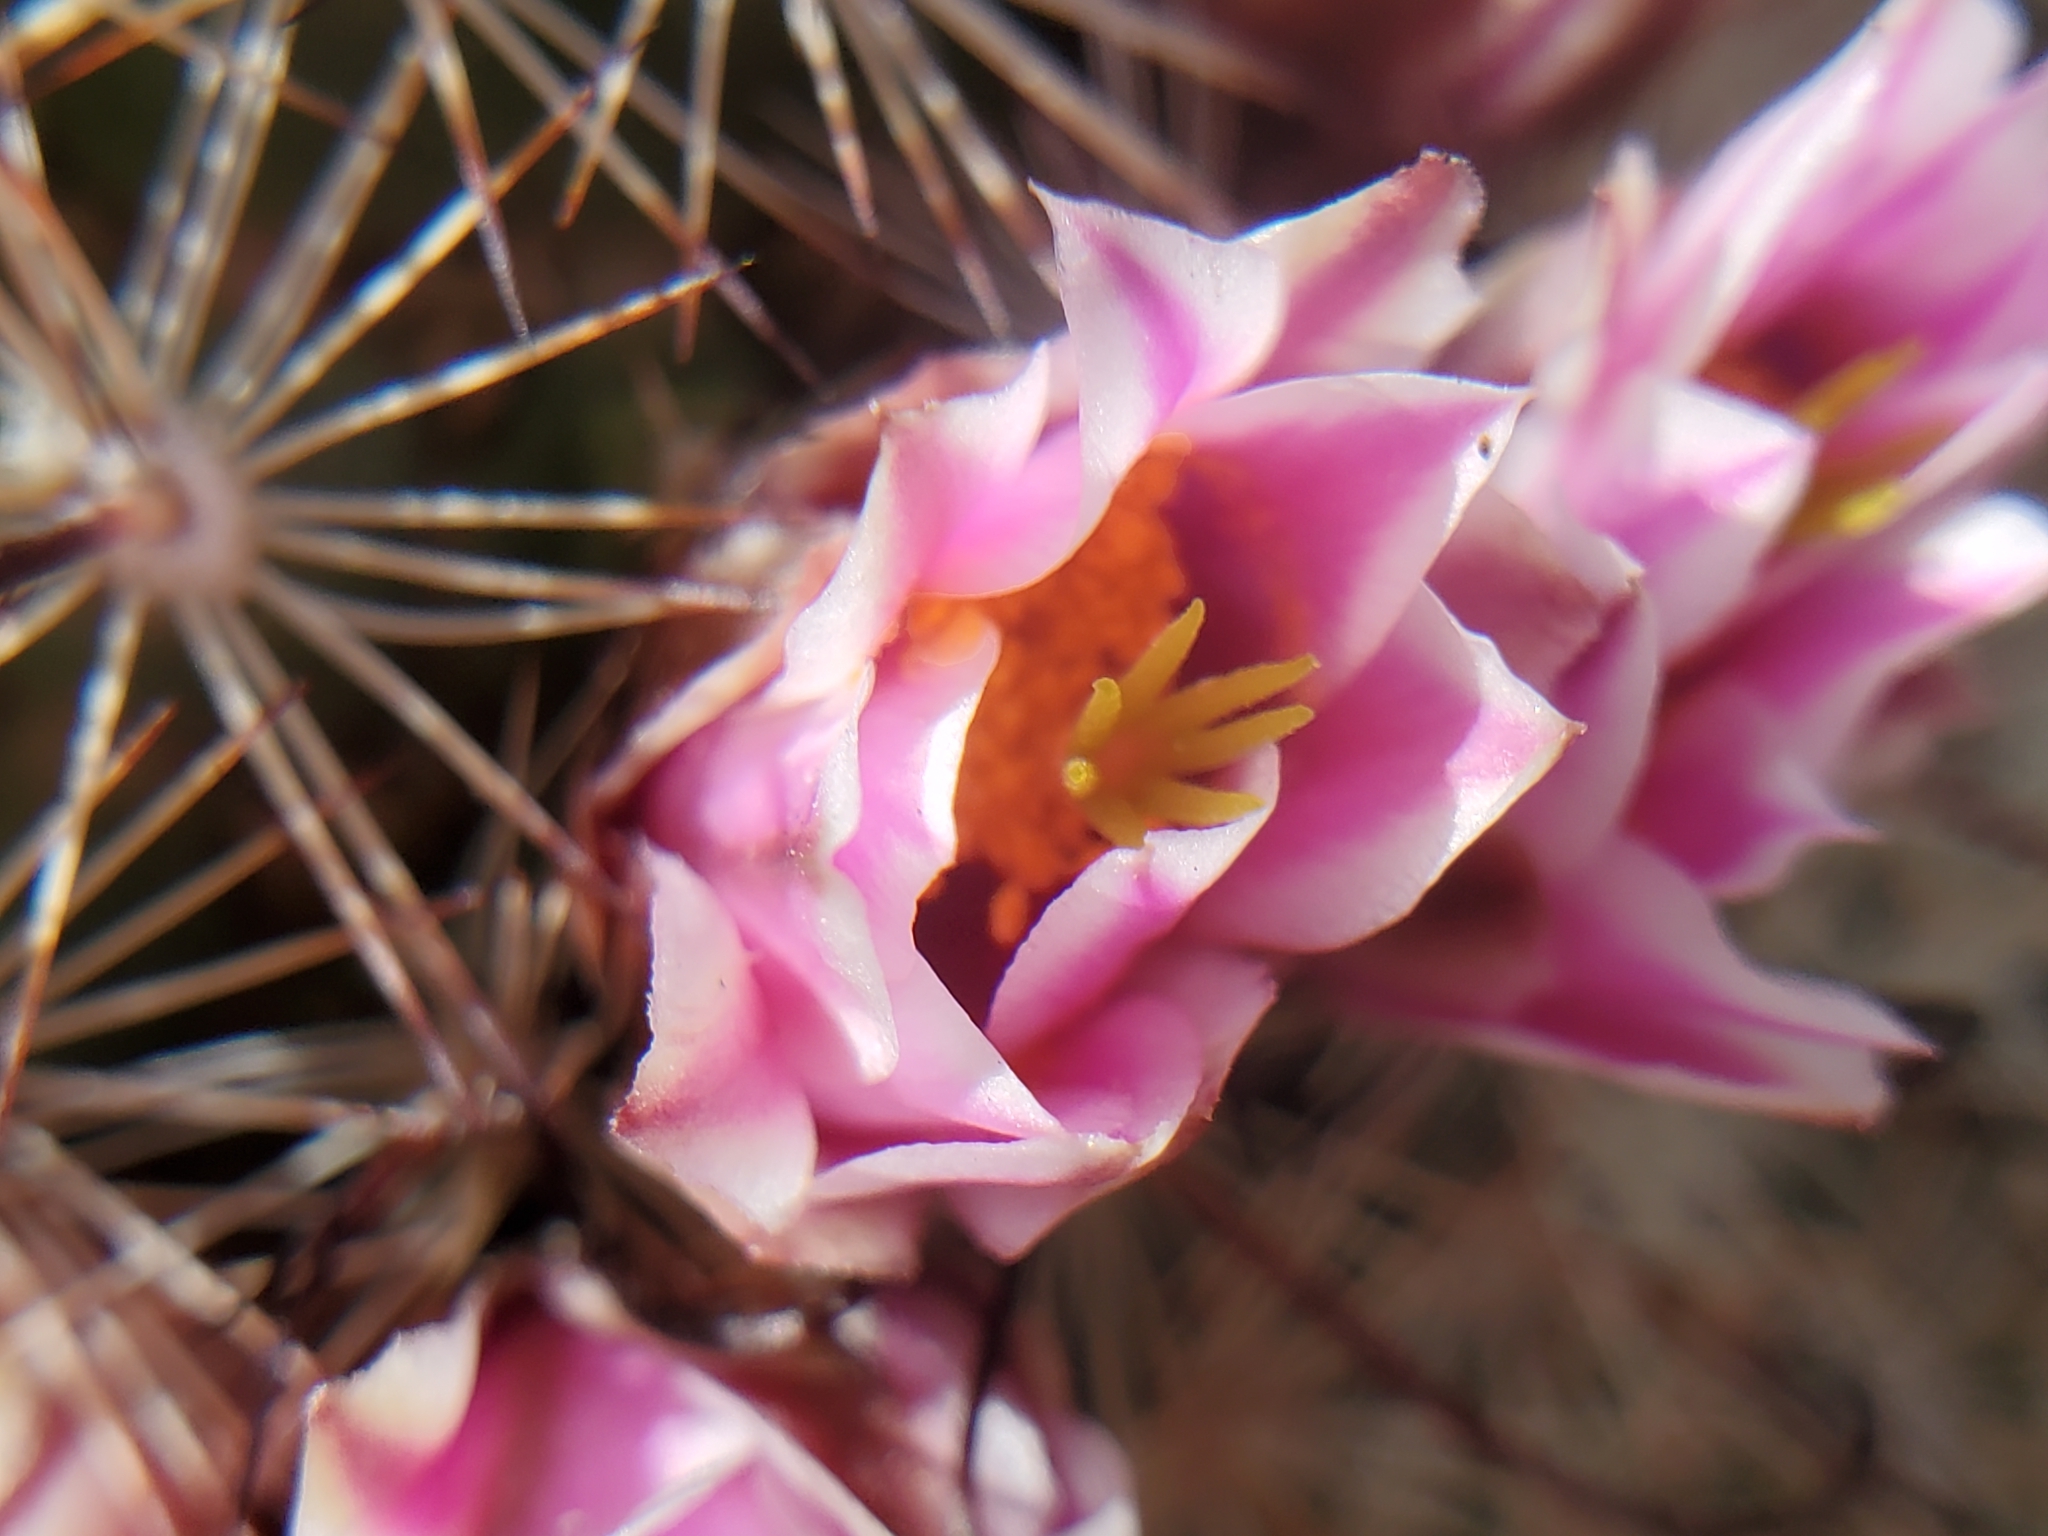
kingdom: Plantae
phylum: Tracheophyta
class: Magnoliopsida
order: Caryophyllales
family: Cactaceae
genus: Cochemiea
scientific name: Cochemiea grahamii
